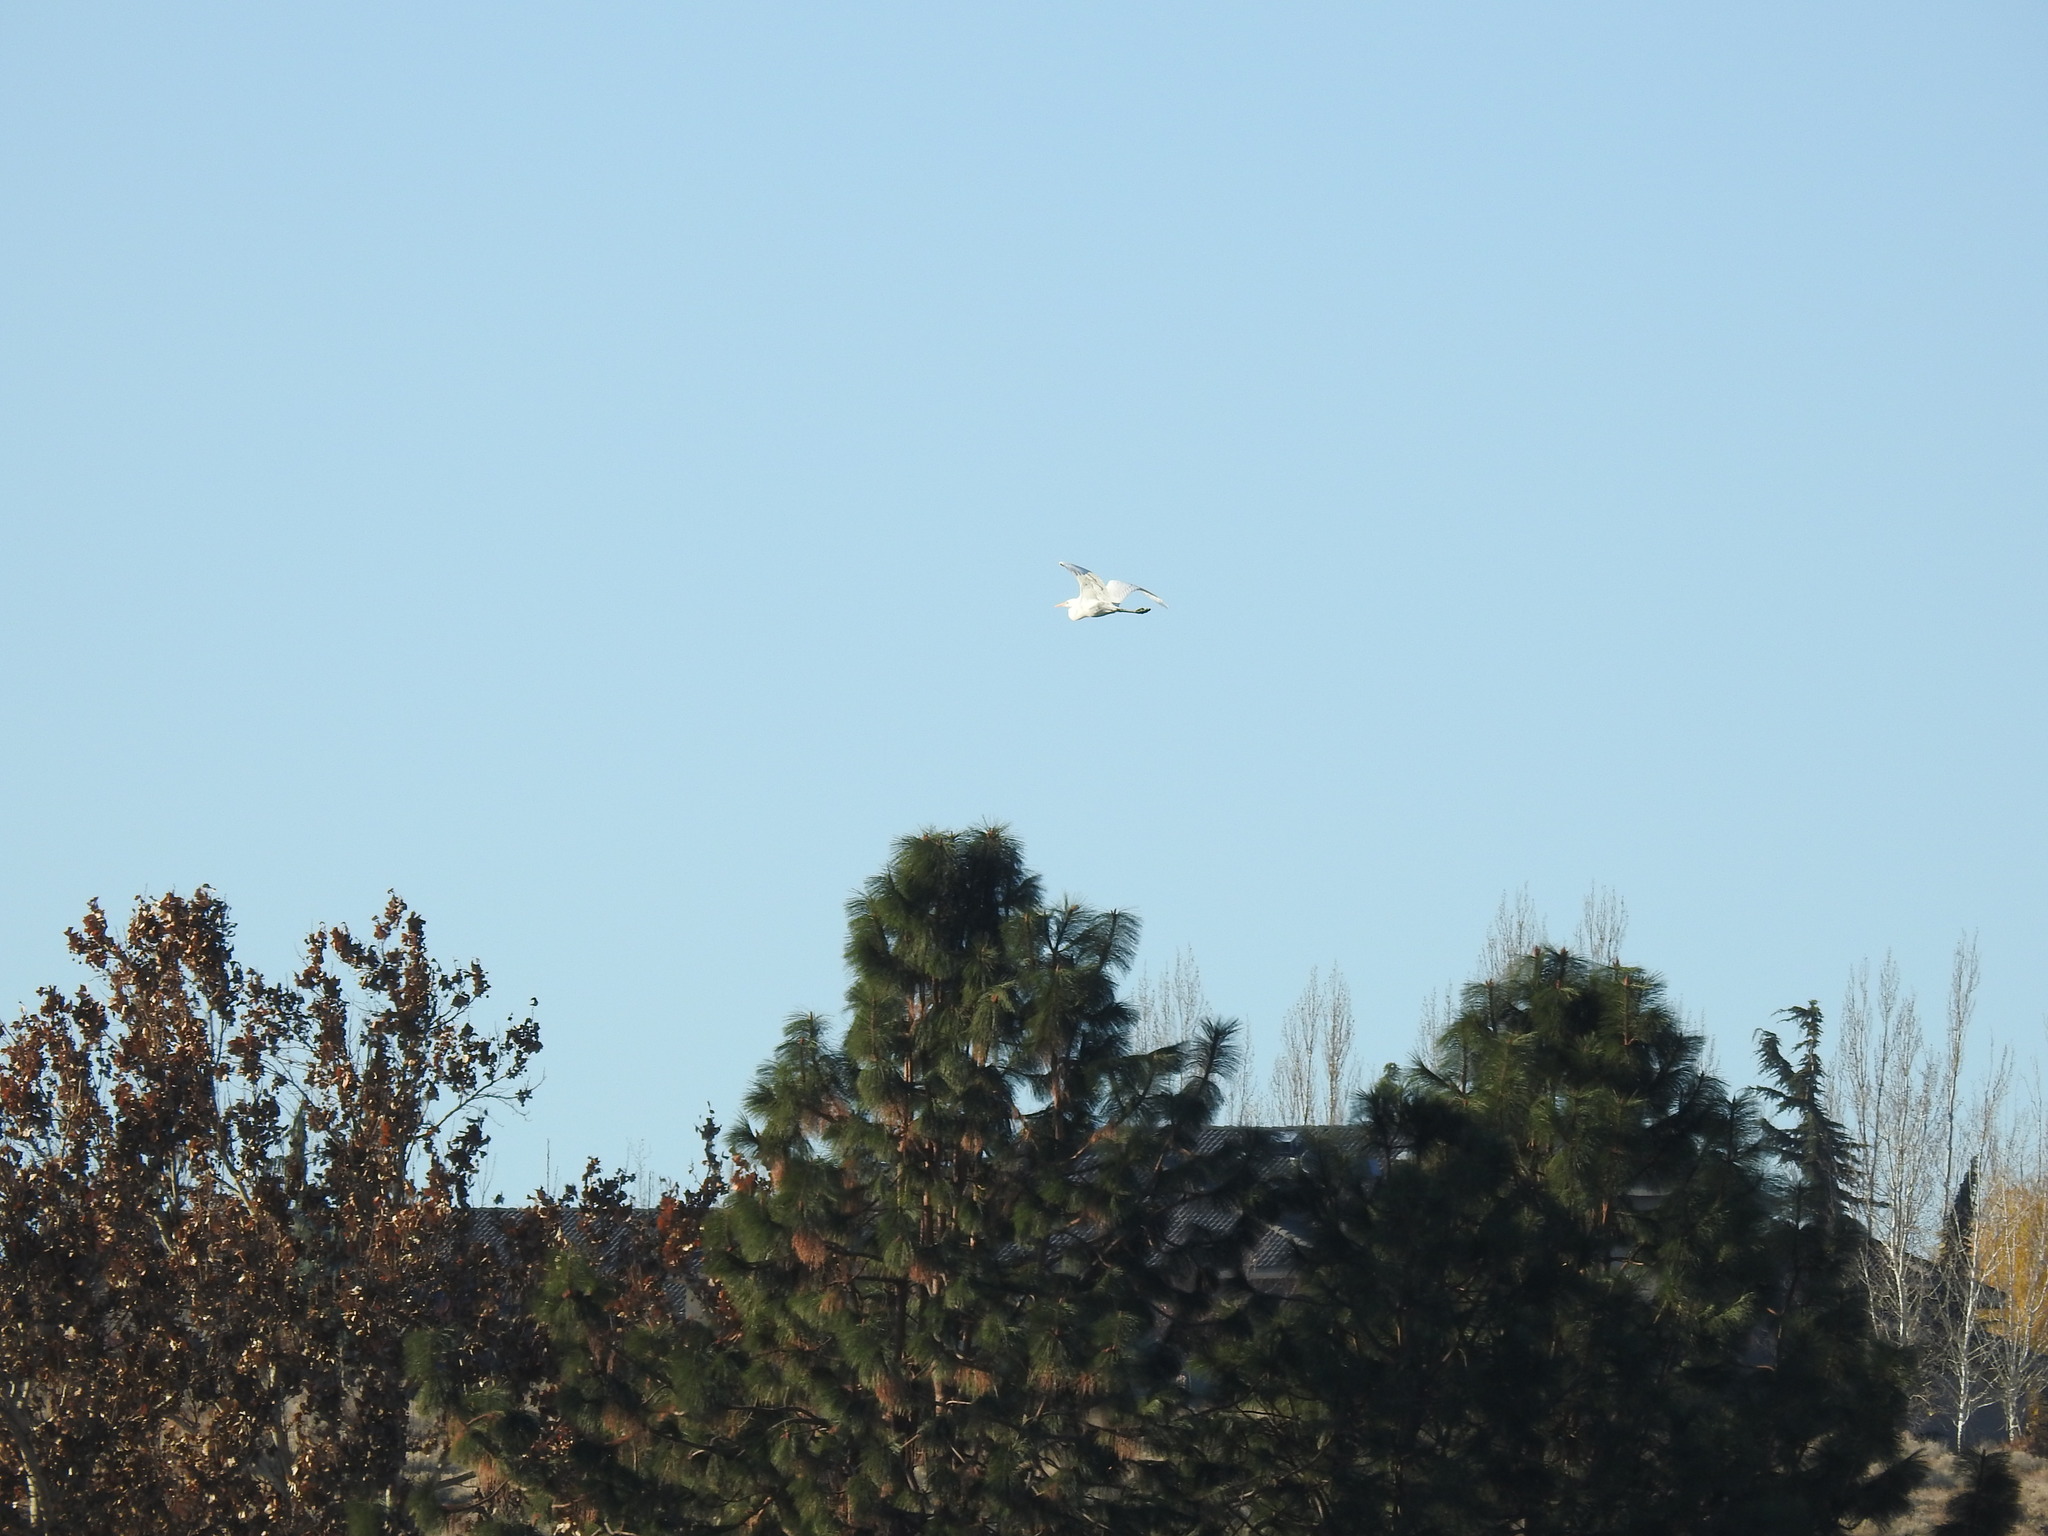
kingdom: Animalia
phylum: Chordata
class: Aves
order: Pelecaniformes
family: Ardeidae
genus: Ardea
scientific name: Ardea alba
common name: Great egret
